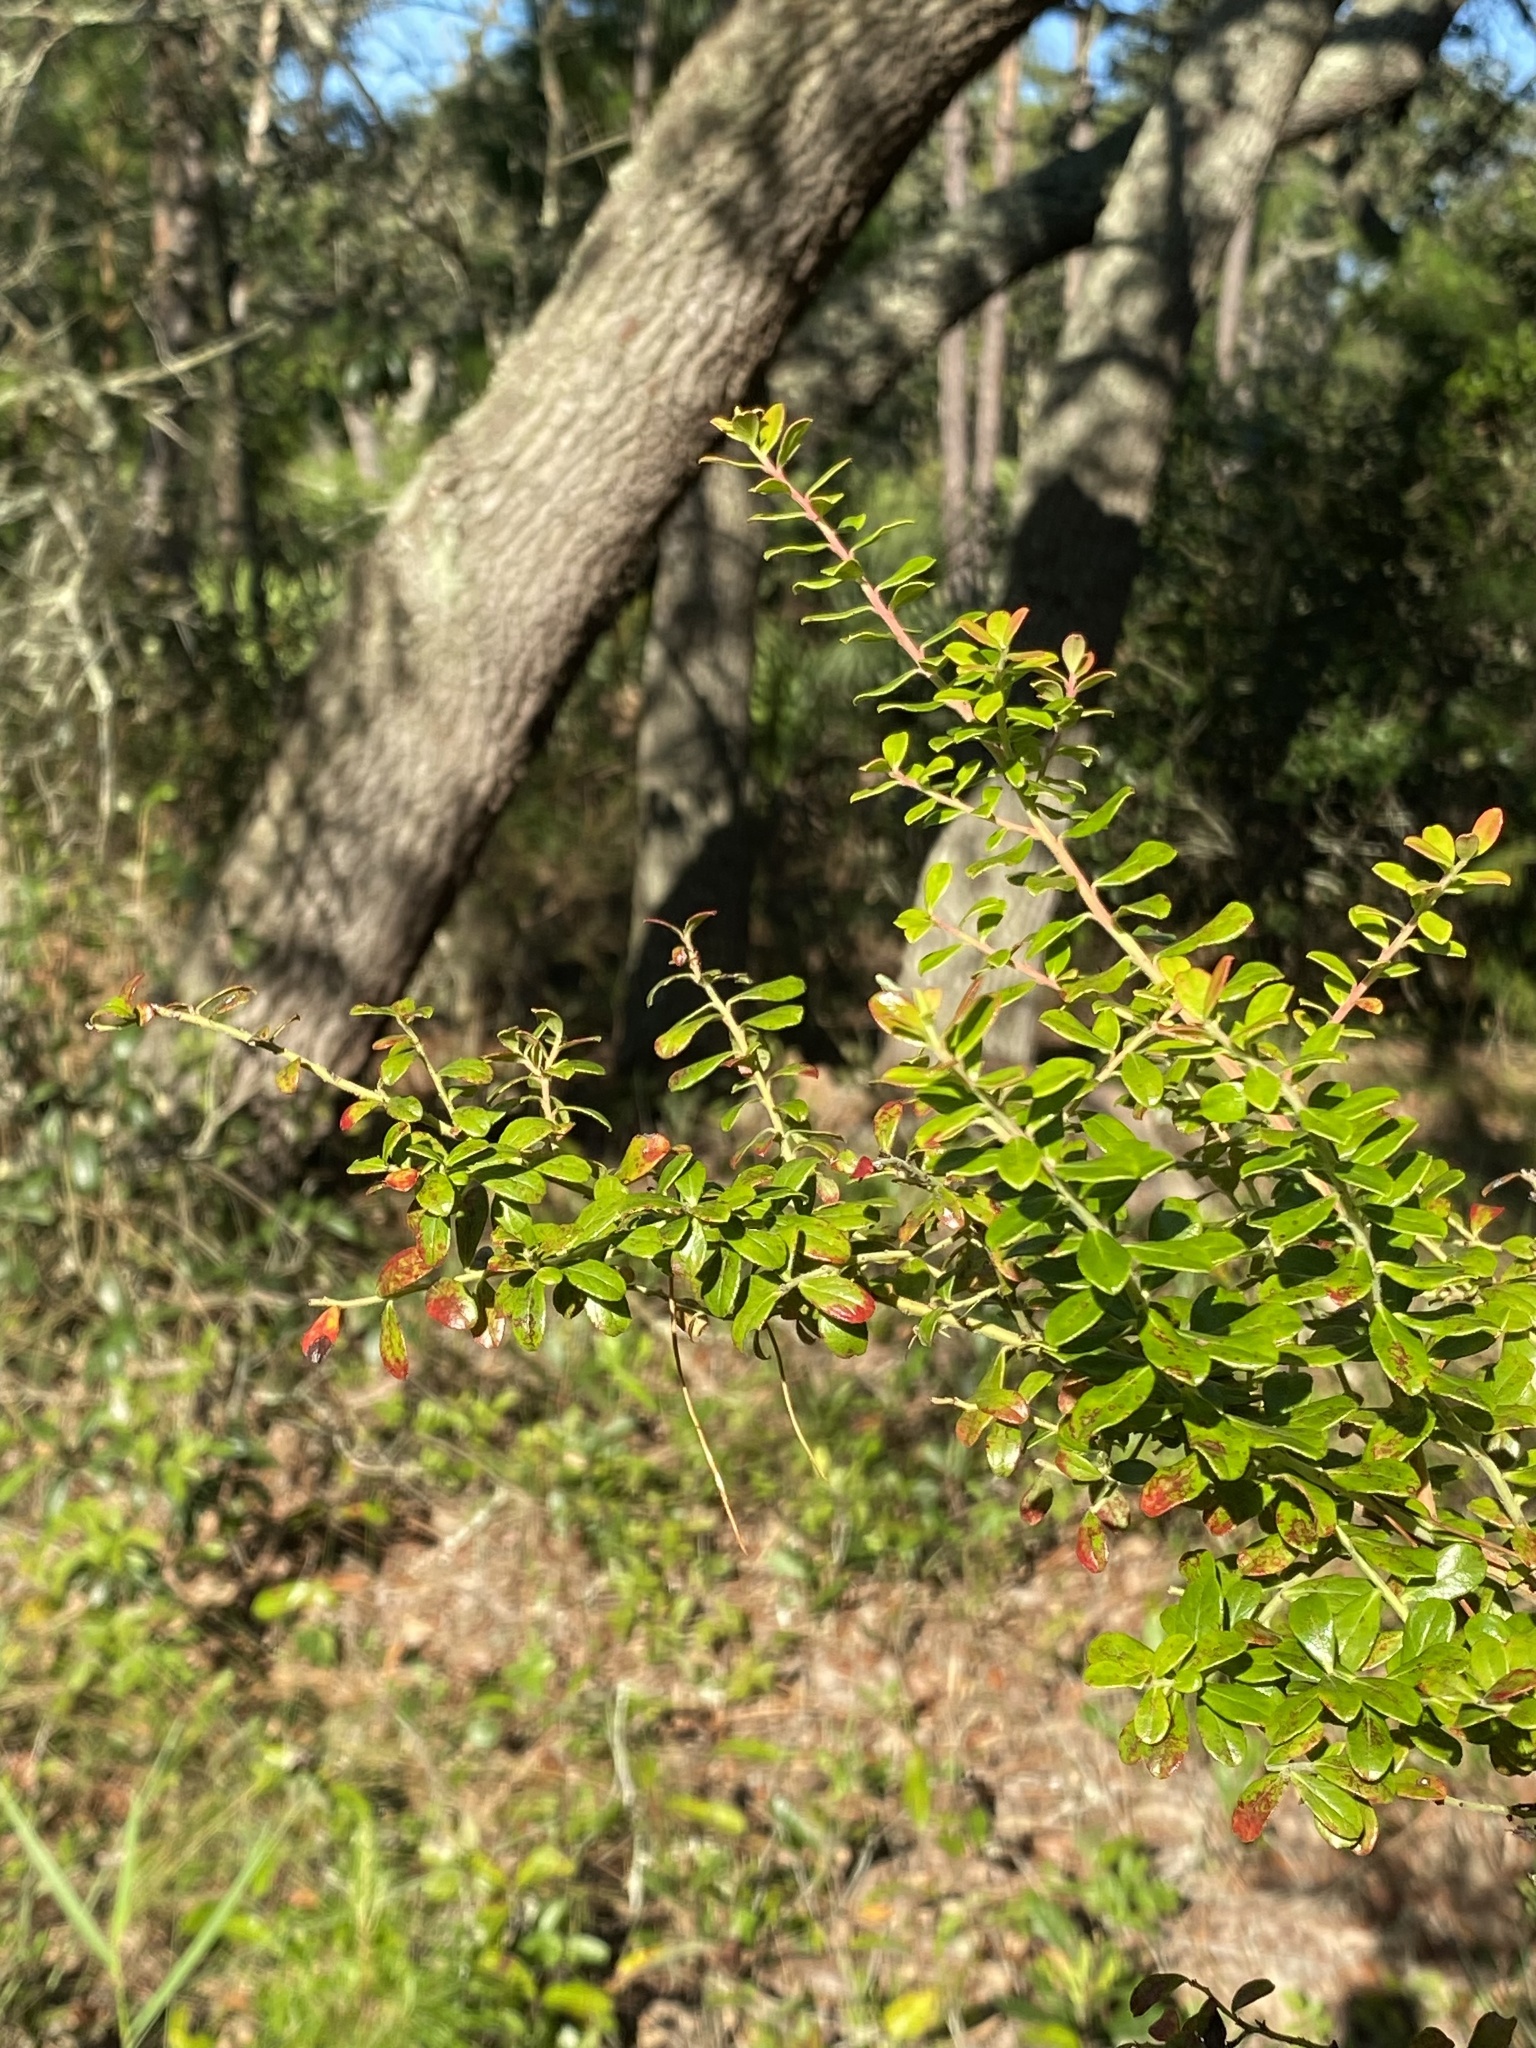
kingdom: Plantae
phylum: Tracheophyta
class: Magnoliopsida
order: Ericales
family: Ericaceae
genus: Vaccinium
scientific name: Vaccinium myrsinites
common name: Evergreen blueberry
